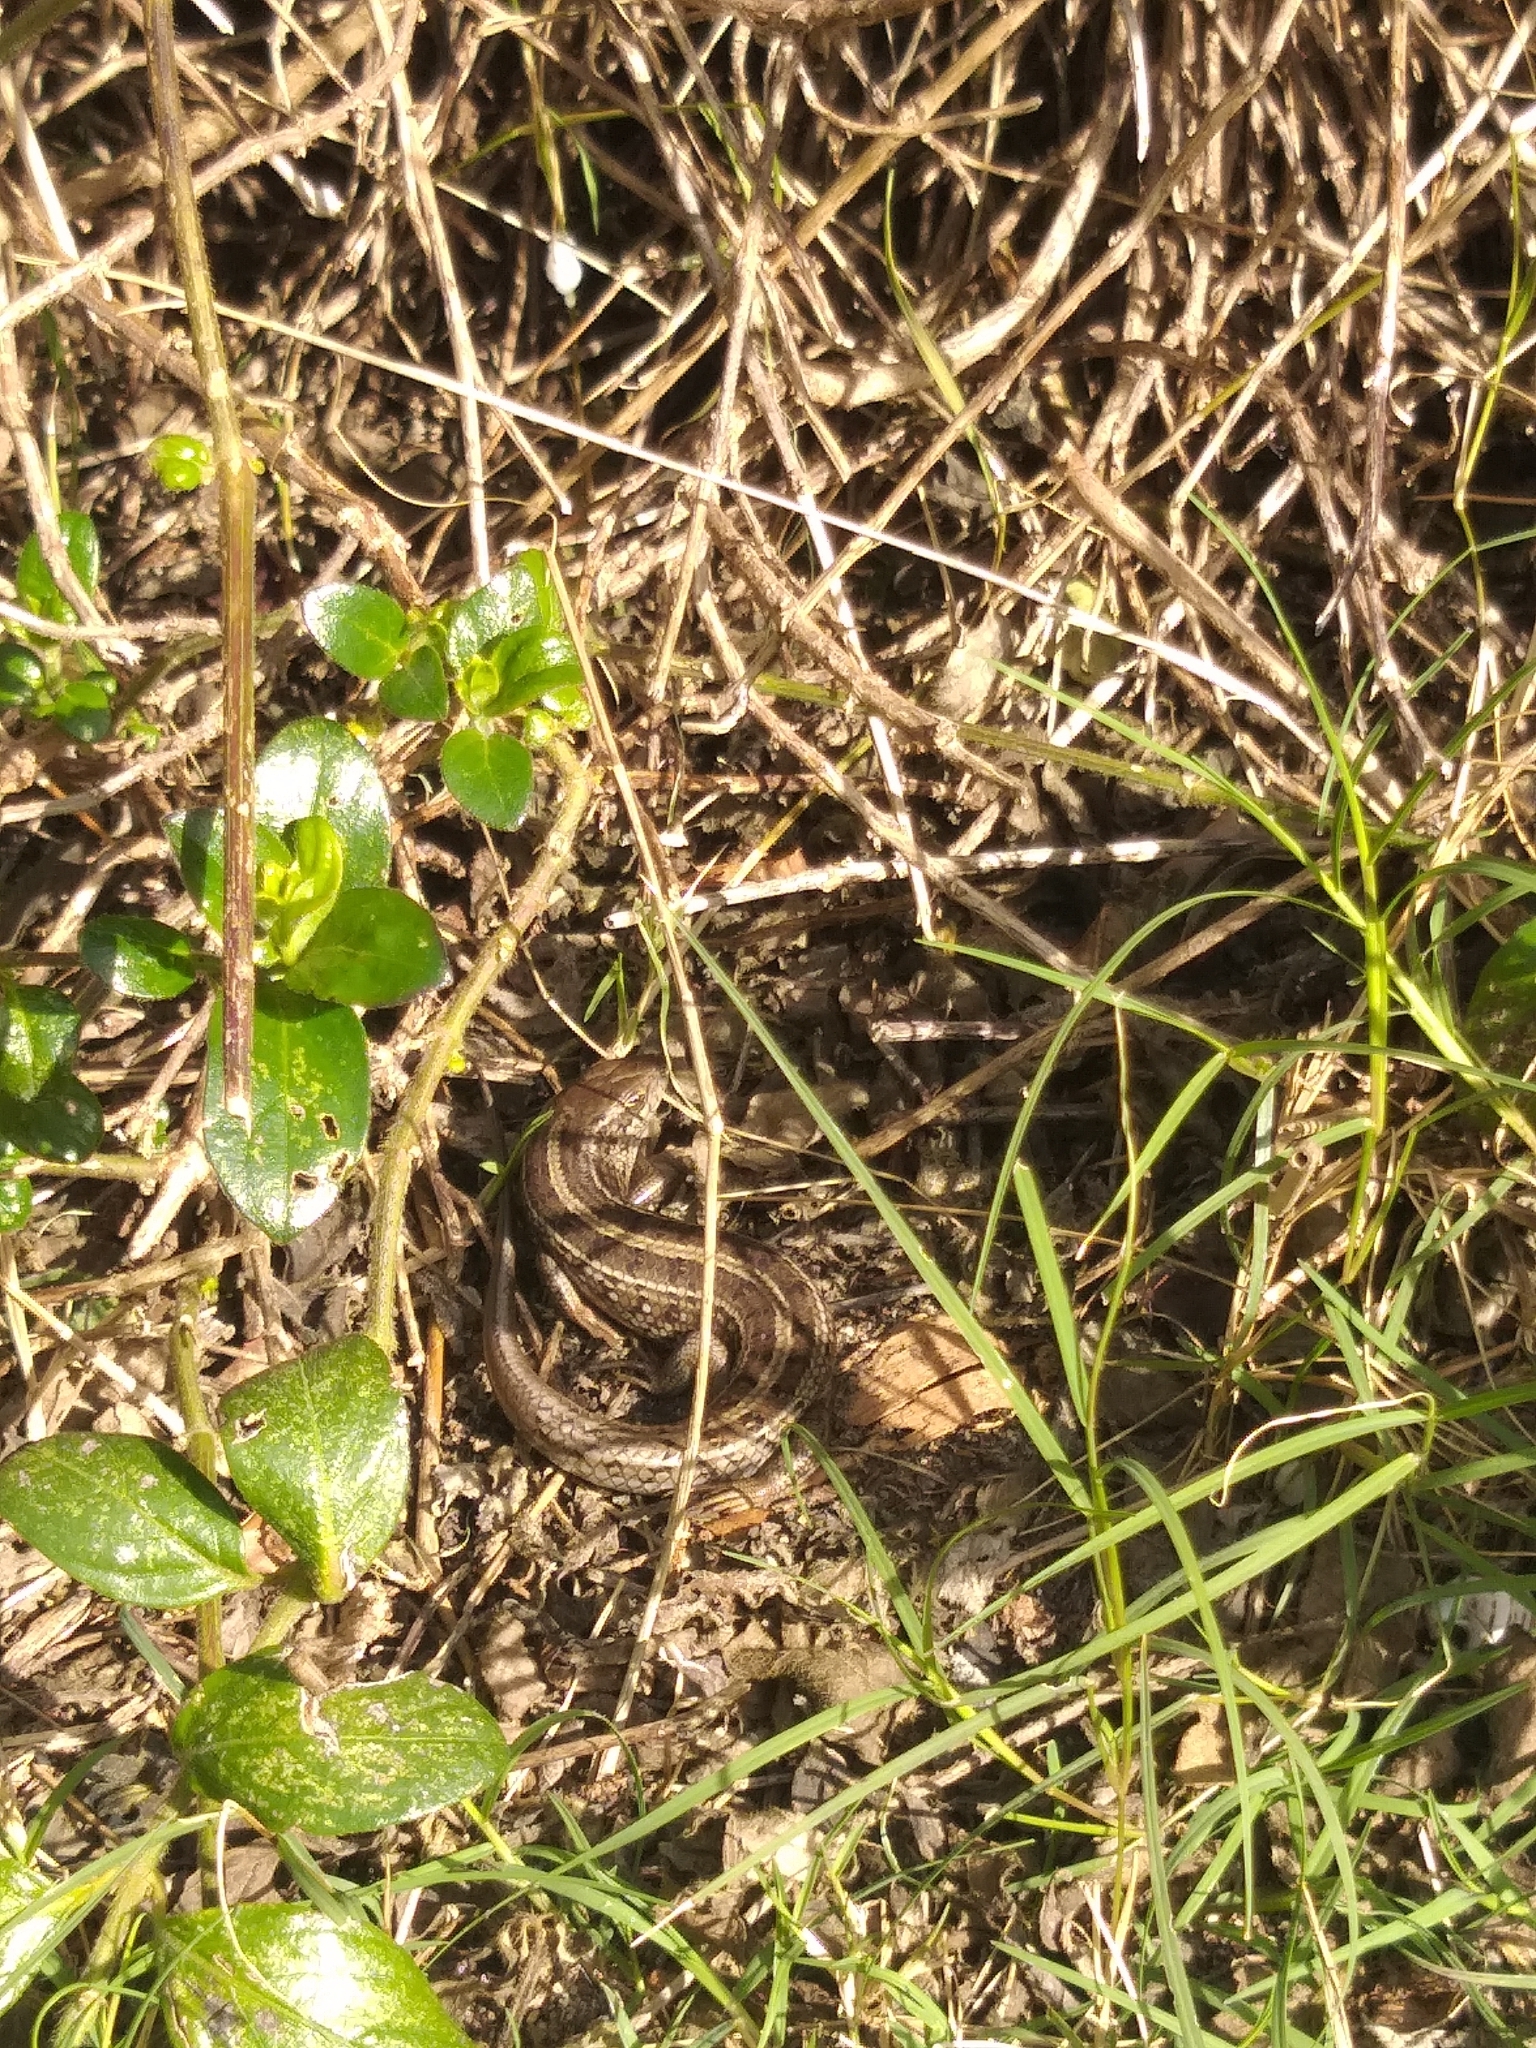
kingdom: Animalia
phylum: Chordata
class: Squamata
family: Scincidae
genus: Trachylepis
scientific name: Trachylepis capensis
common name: Cape skink
